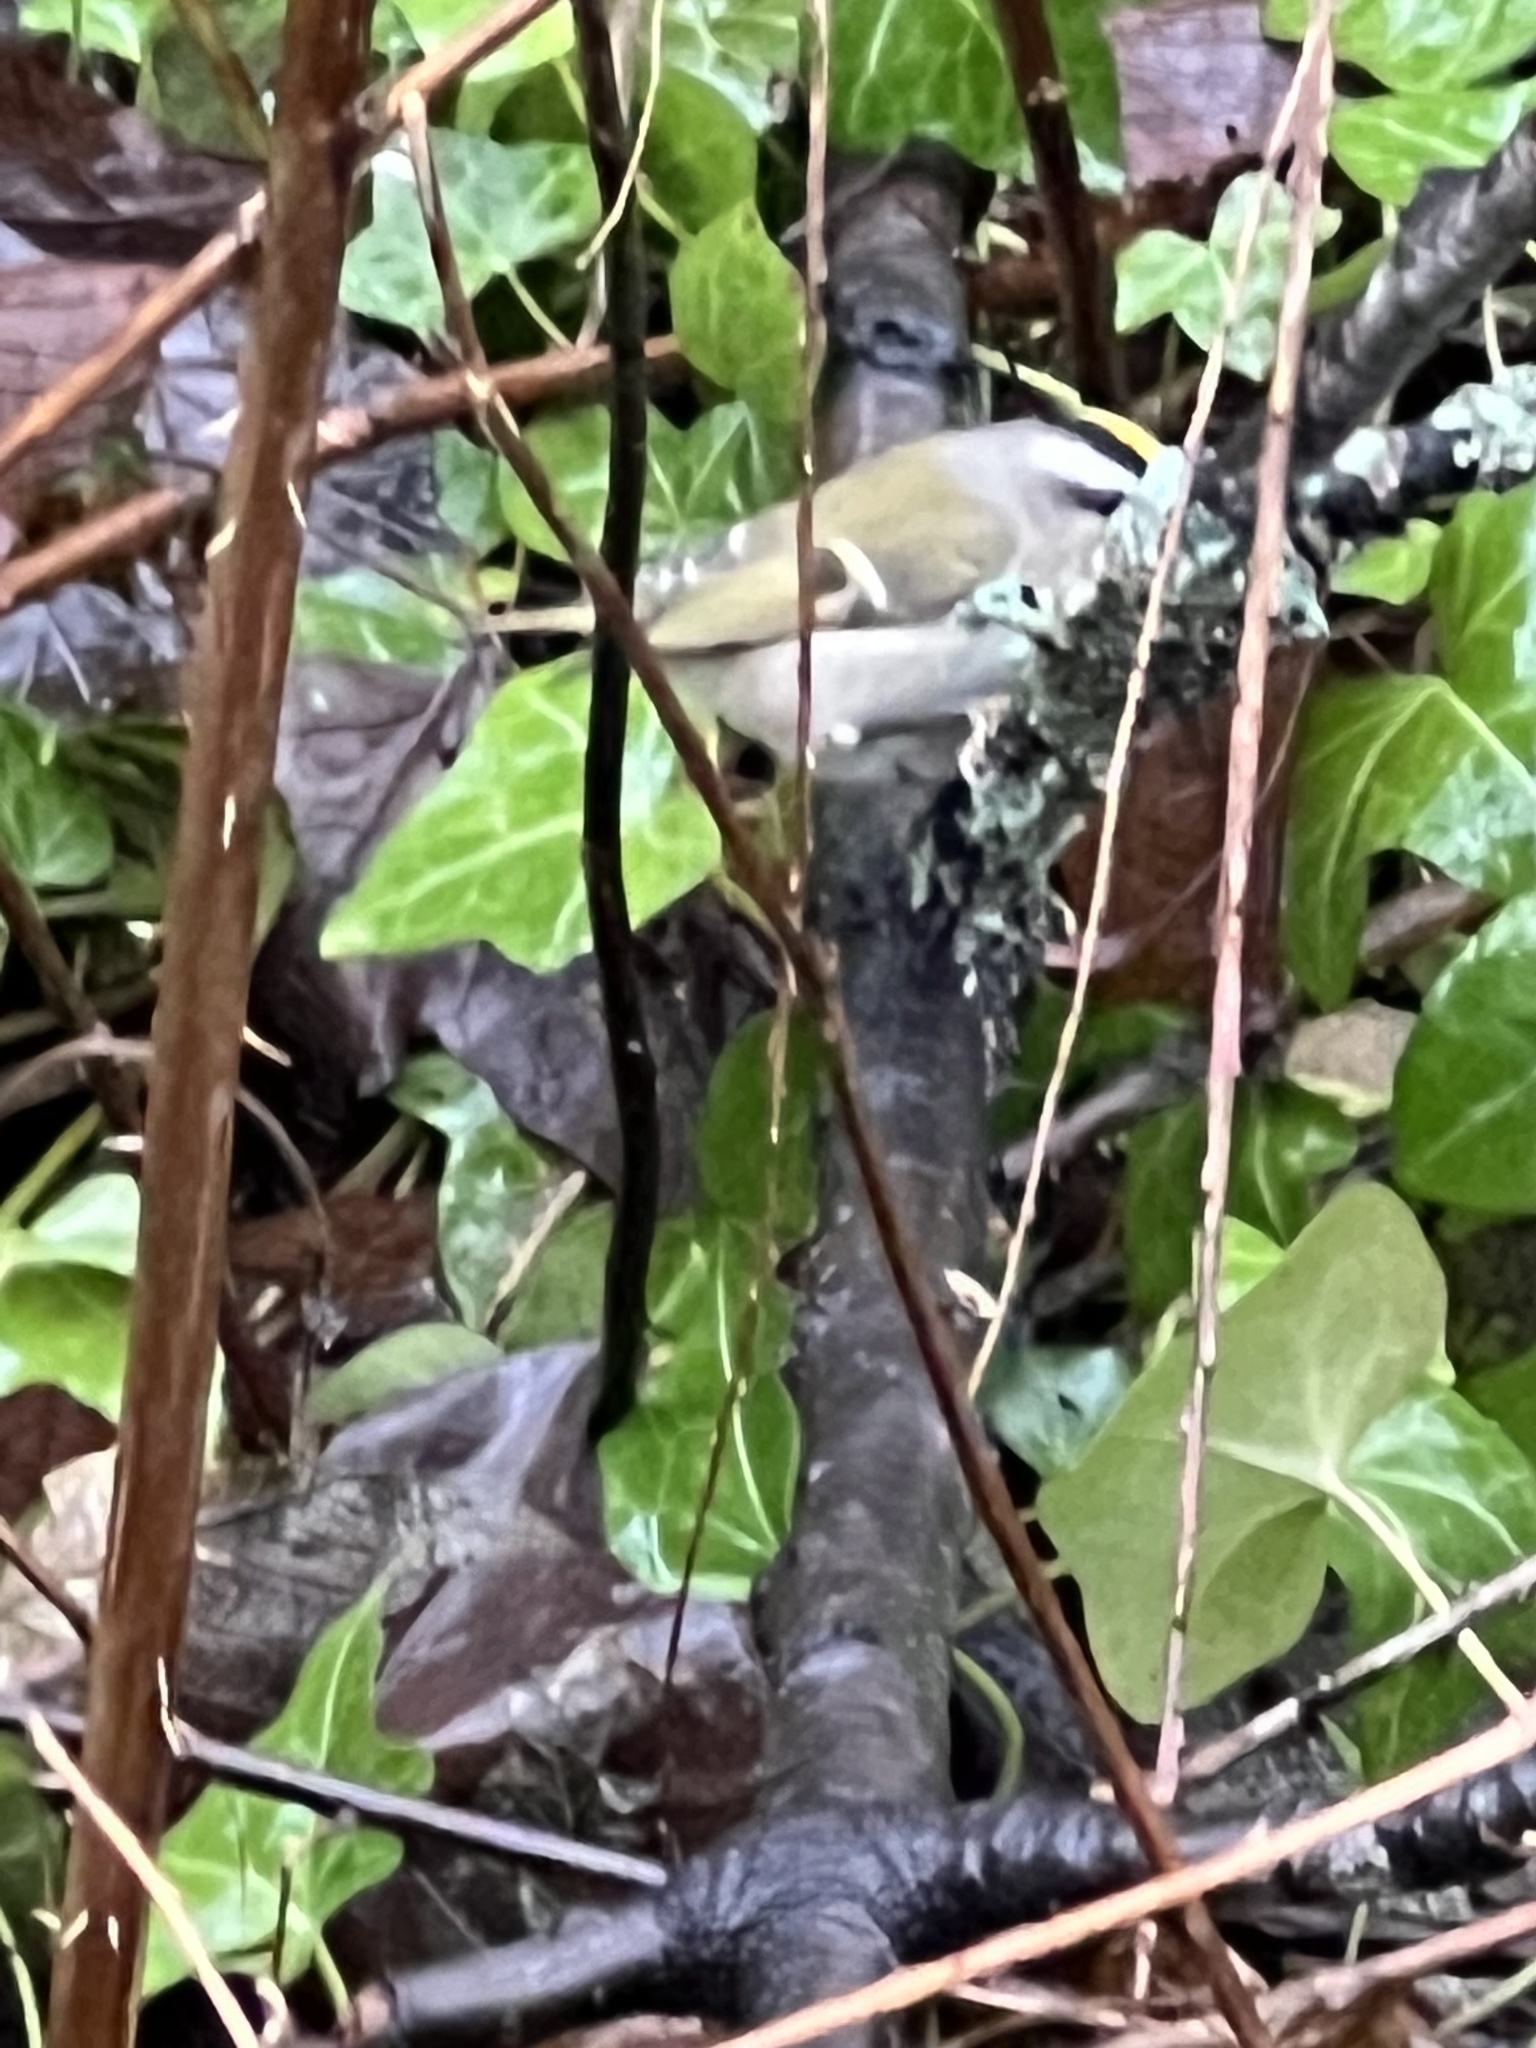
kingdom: Animalia
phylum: Chordata
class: Aves
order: Passeriformes
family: Regulidae
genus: Regulus
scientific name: Regulus satrapa
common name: Golden-crowned kinglet
